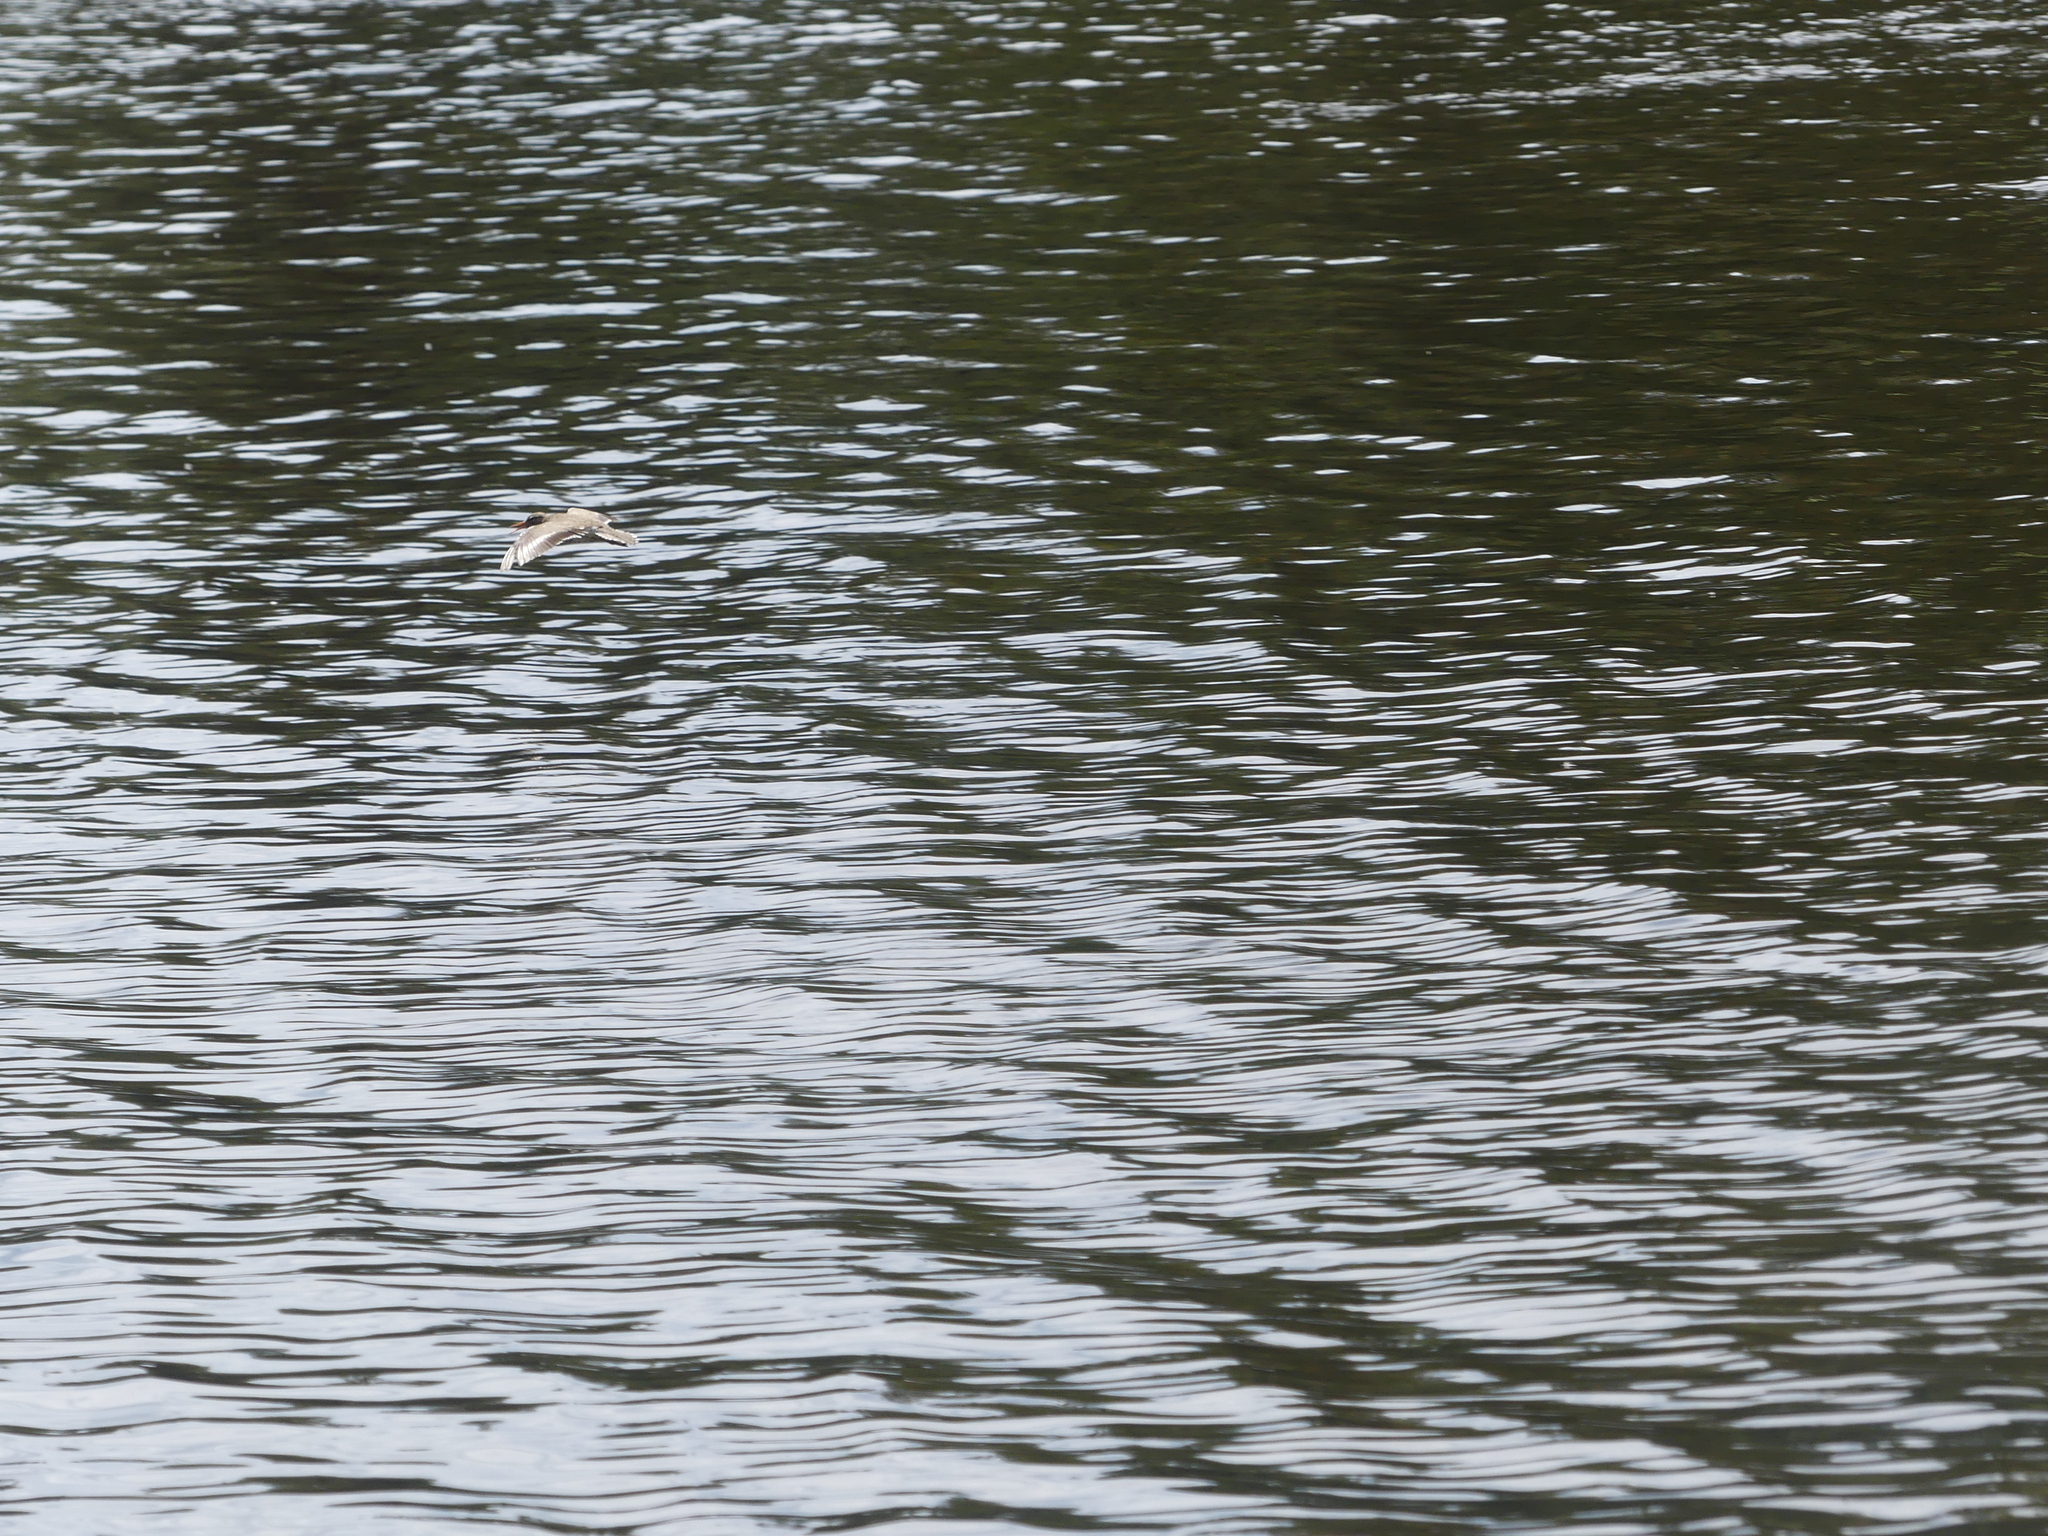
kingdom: Animalia
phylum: Chordata
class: Aves
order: Charadriiformes
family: Scolopacidae
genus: Actitis
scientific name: Actitis macularius
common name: Spotted sandpiper
